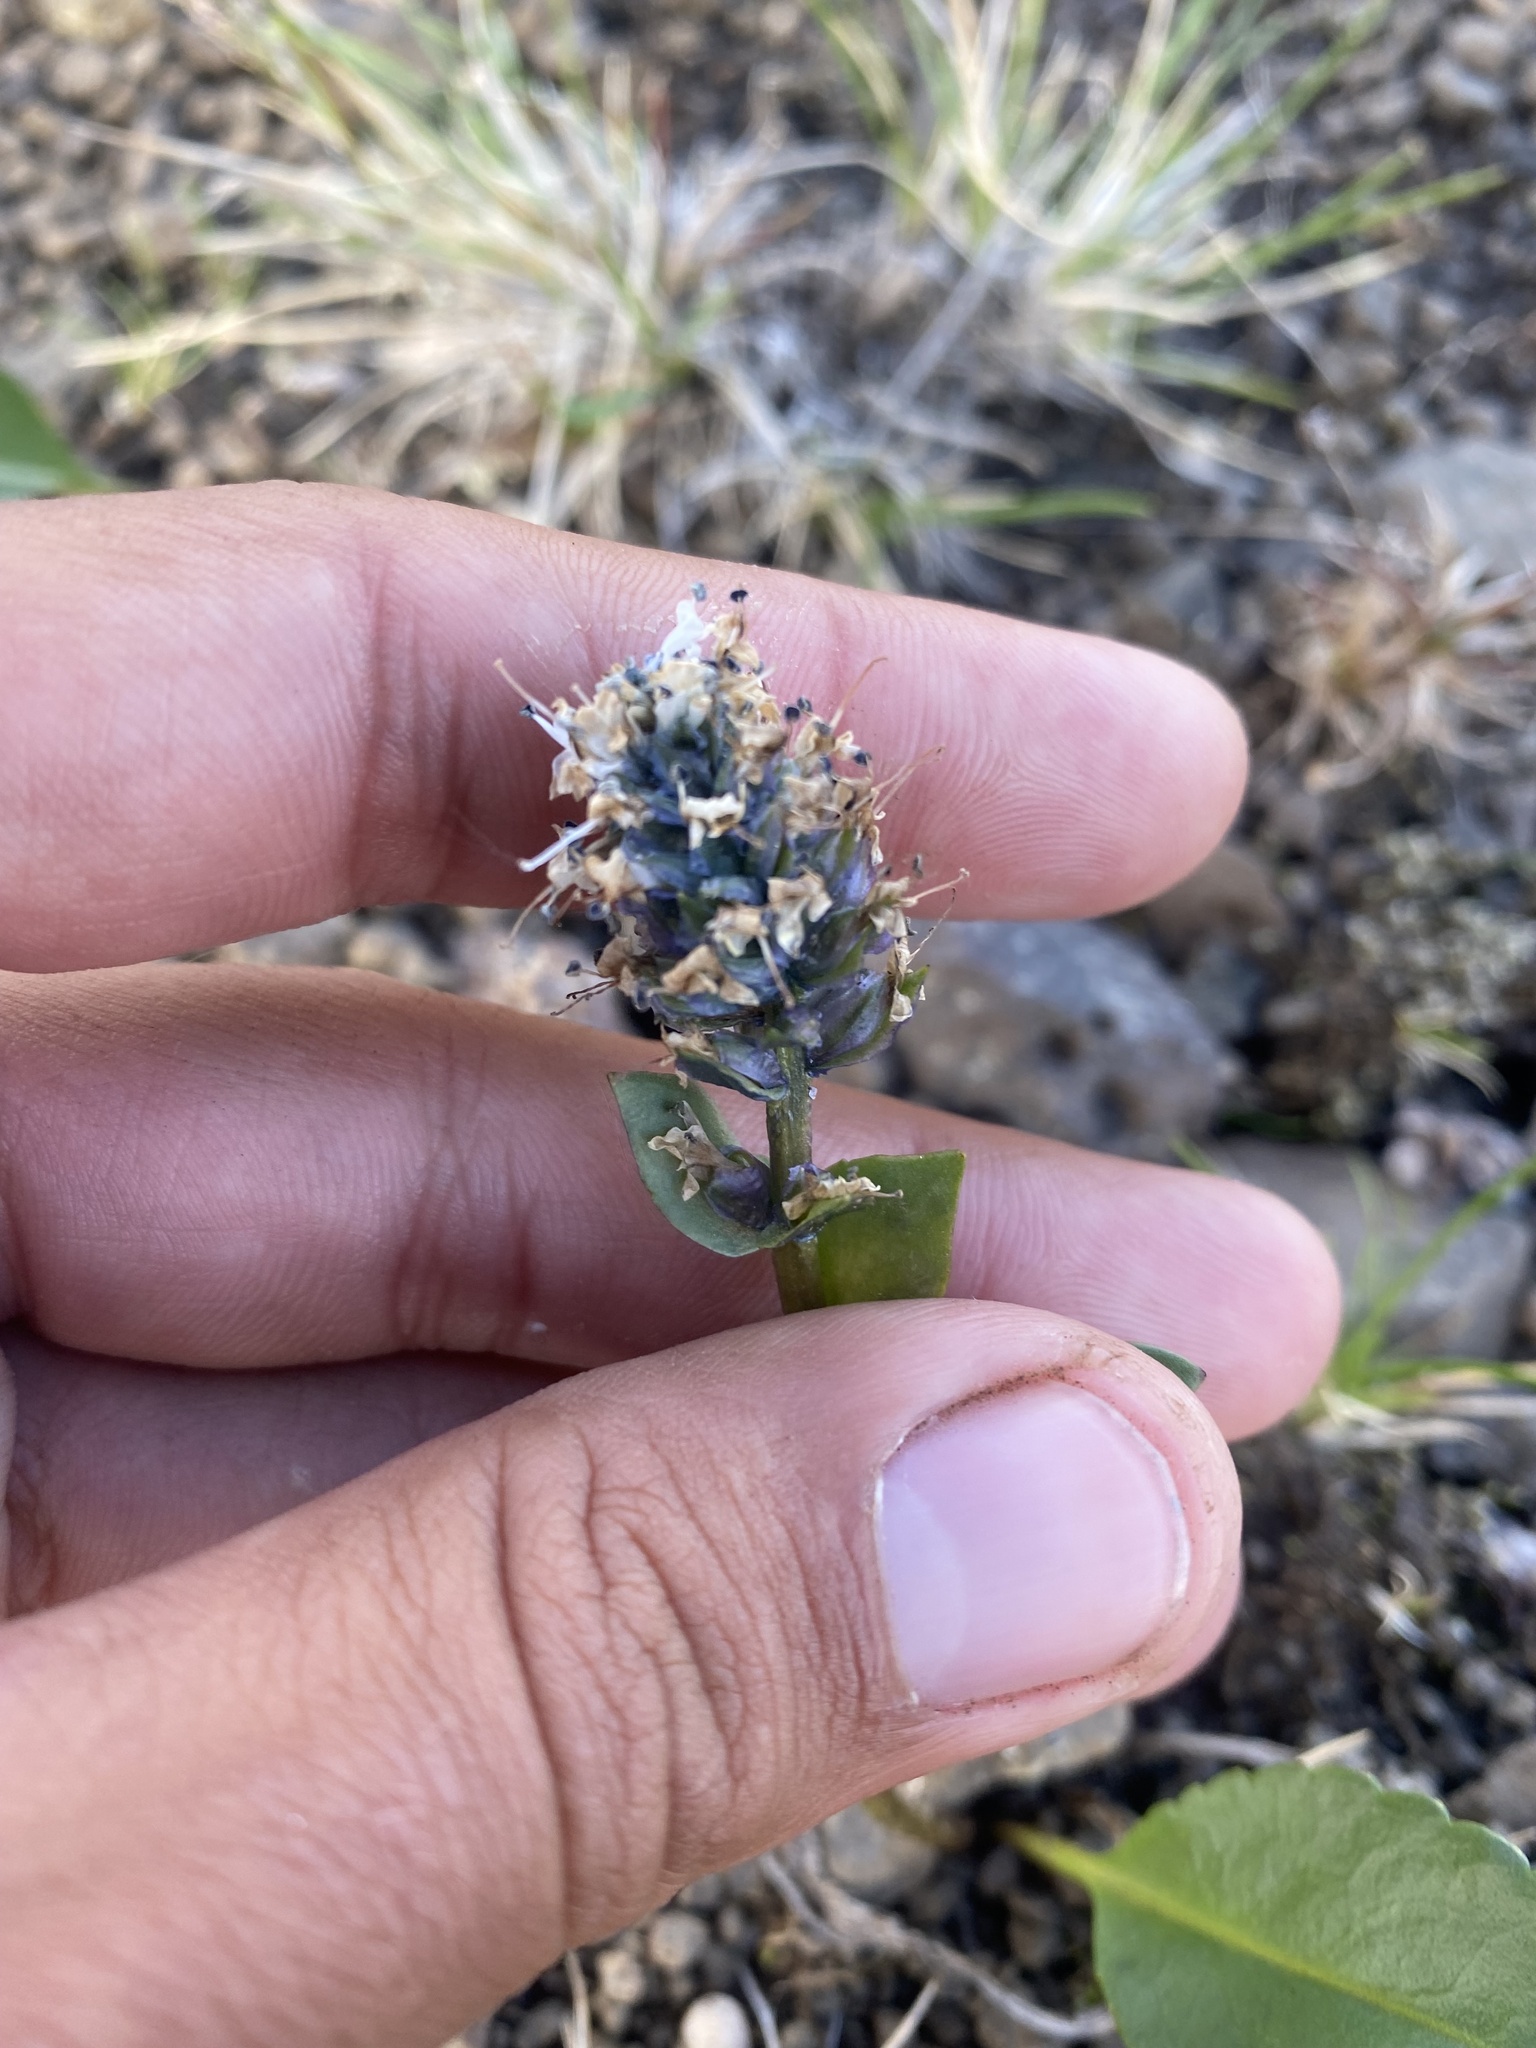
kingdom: Plantae
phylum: Tracheophyta
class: Magnoliopsida
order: Lamiales
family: Plantaginaceae
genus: Lagotis
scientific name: Lagotis glauca
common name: Glaucous weaselsnout
